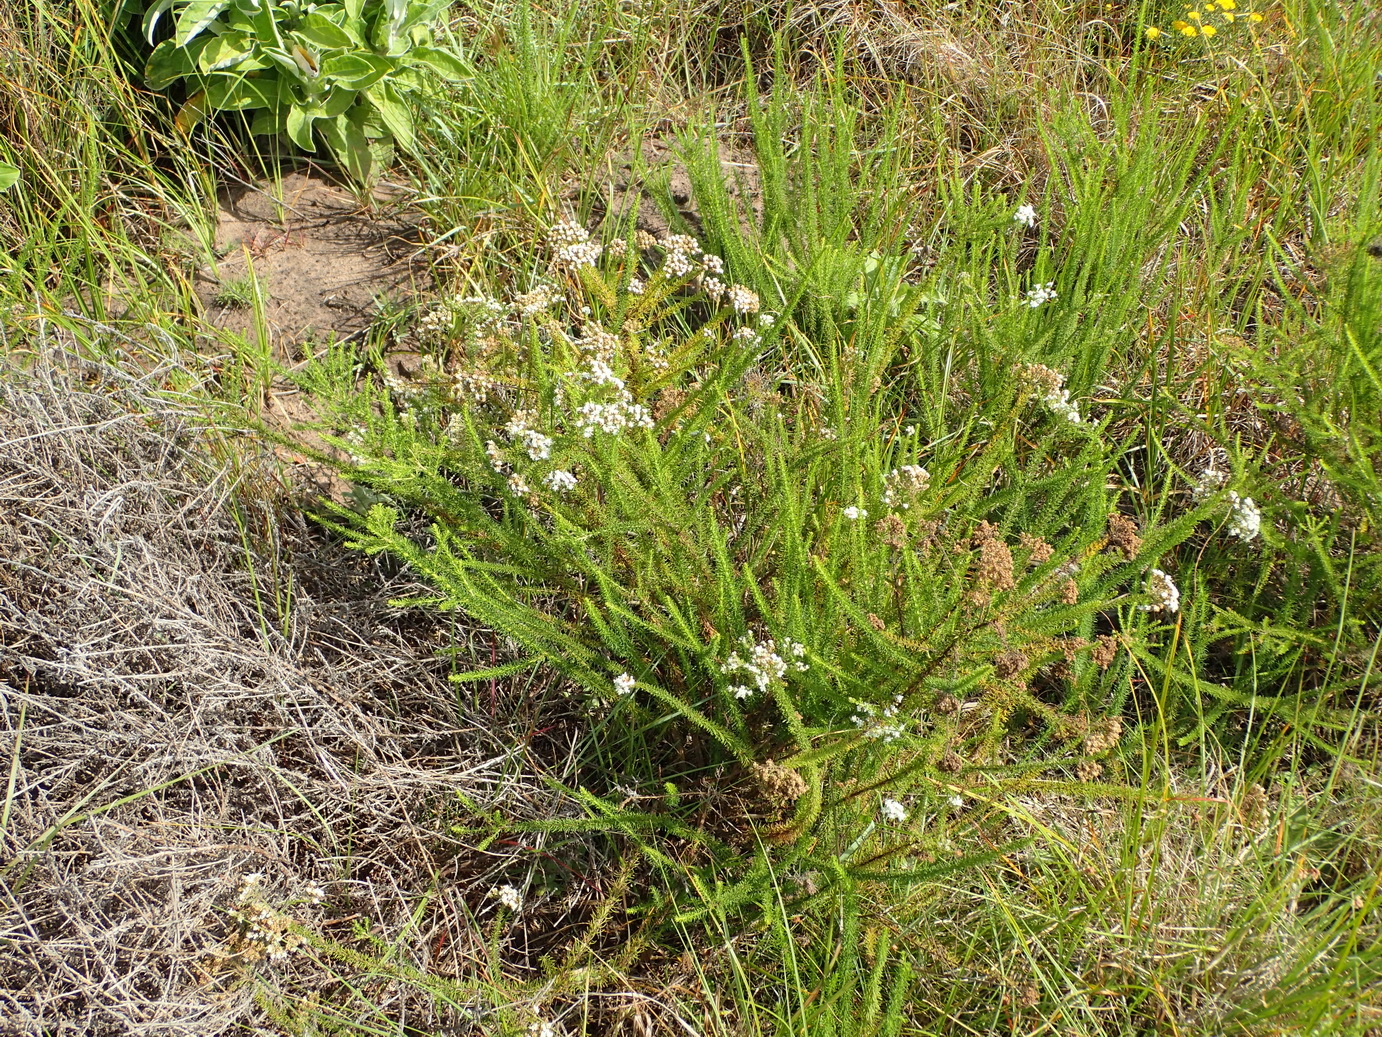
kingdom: Plantae
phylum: Tracheophyta
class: Magnoliopsida
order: Lamiales
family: Scrophulariaceae
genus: Selago
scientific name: Selago corymbosa
